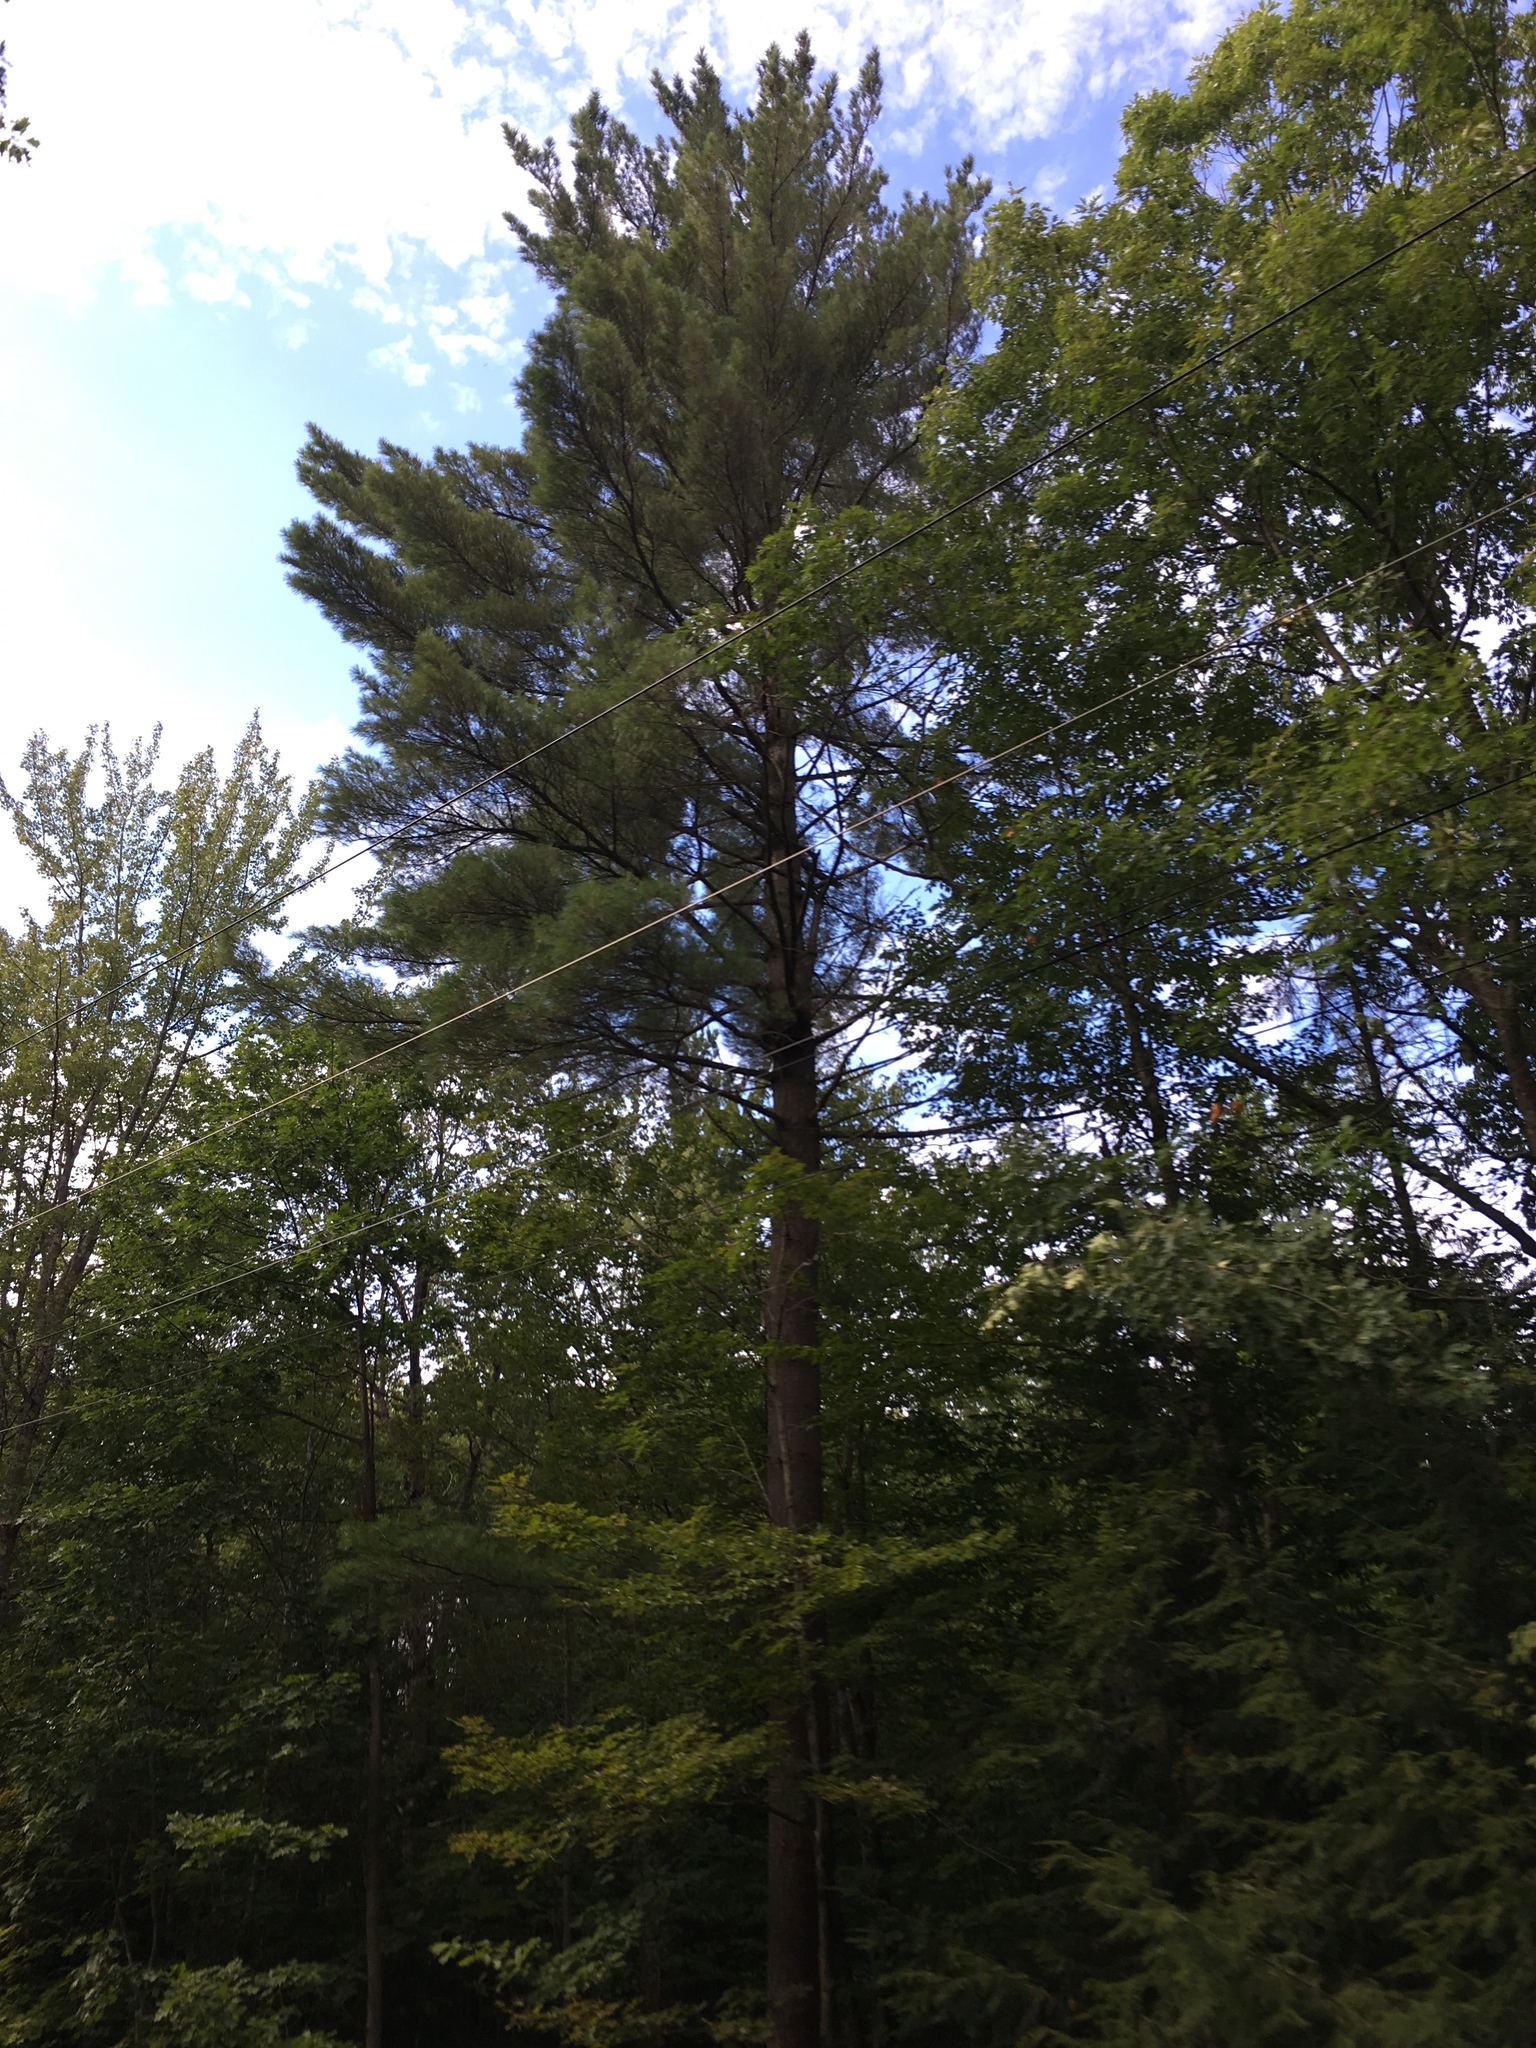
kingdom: Plantae
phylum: Tracheophyta
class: Pinopsida
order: Pinales
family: Pinaceae
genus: Pinus
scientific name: Pinus strobus
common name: Weymouth pine
